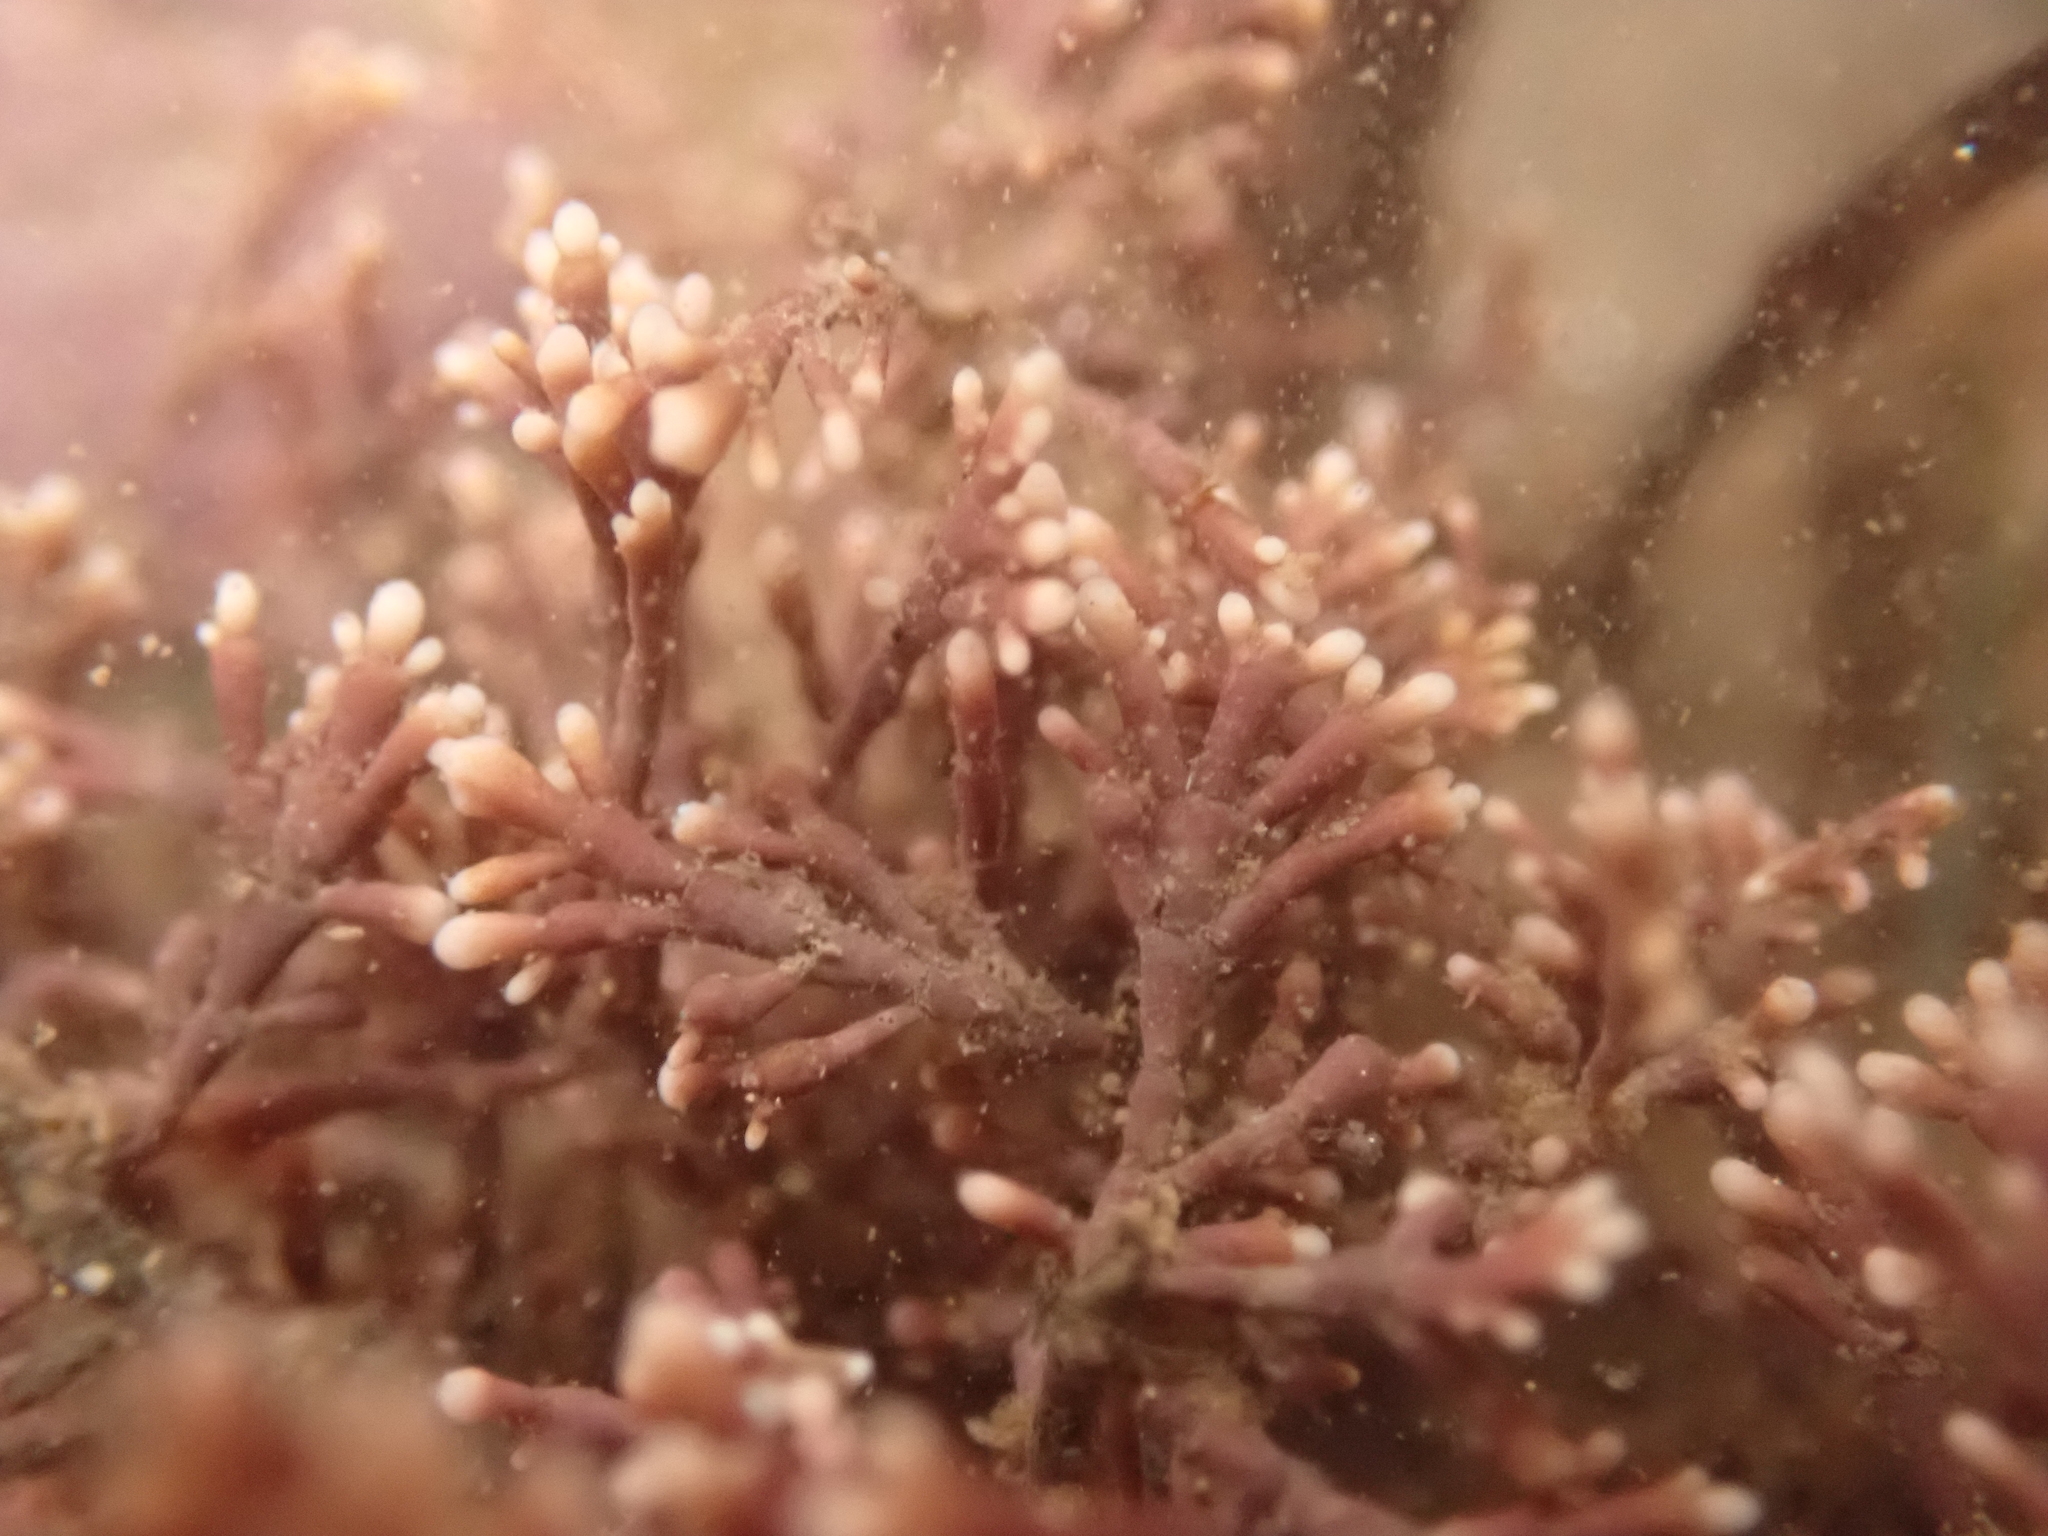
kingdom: Plantae
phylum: Rhodophyta
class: Florideophyceae
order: Corallinales
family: Corallinaceae
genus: Corallina
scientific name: Corallina officinalis
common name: Coral weed
